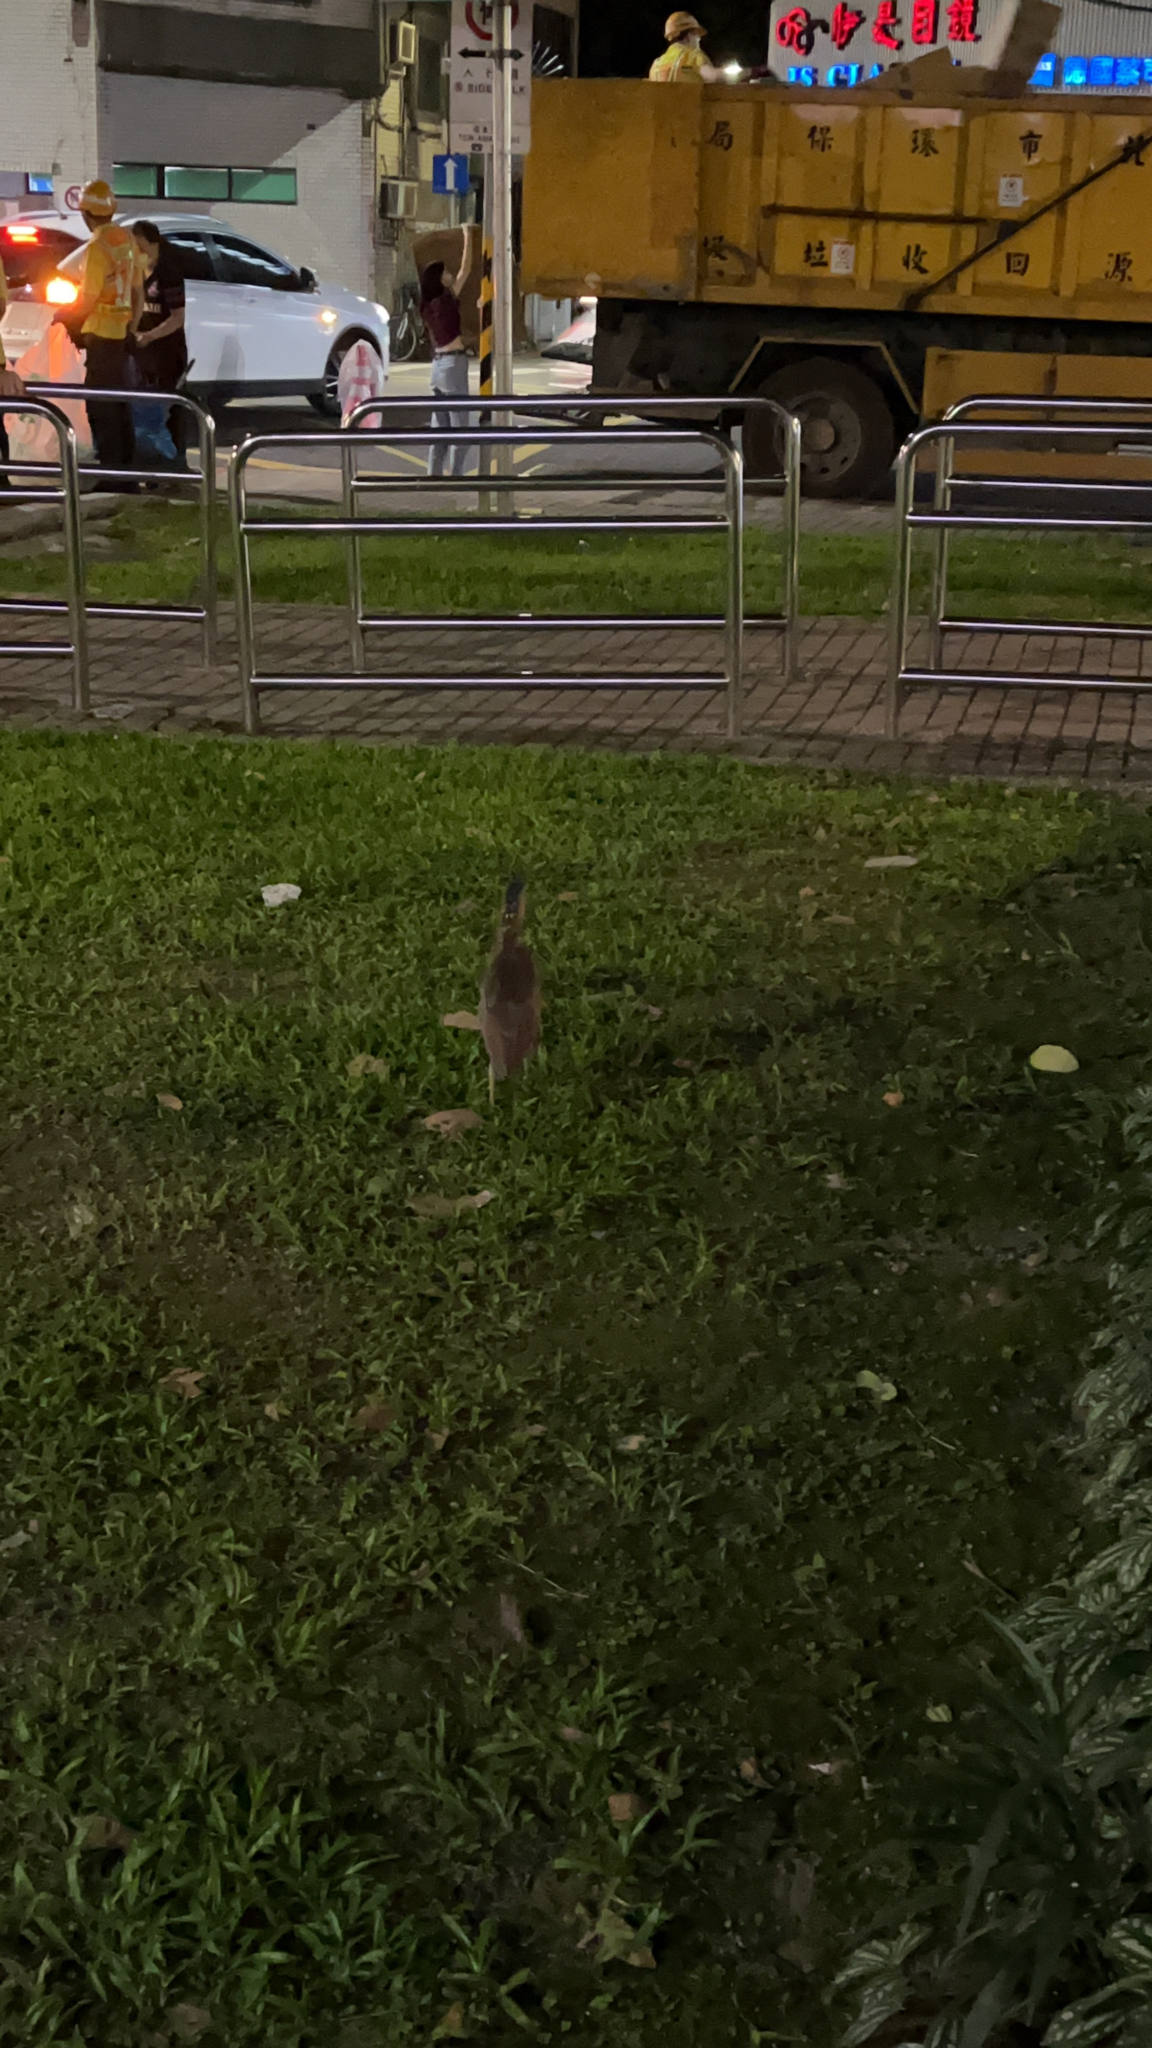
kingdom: Animalia
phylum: Chordata
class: Aves
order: Pelecaniformes
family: Ardeidae
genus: Gorsachius
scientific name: Gorsachius melanolophus
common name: Malayan night heron
